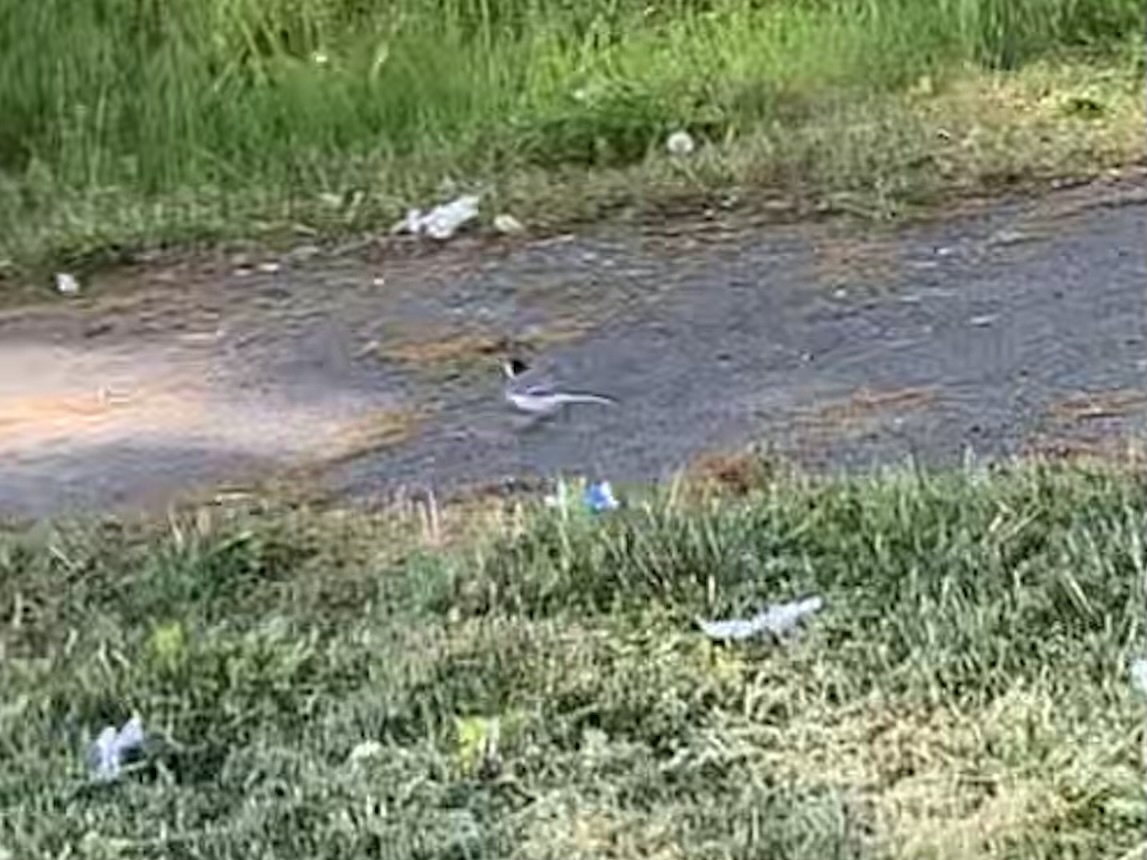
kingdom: Animalia
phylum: Chordata
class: Aves
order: Passeriformes
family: Motacillidae
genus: Motacilla
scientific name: Motacilla alba
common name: White wagtail
